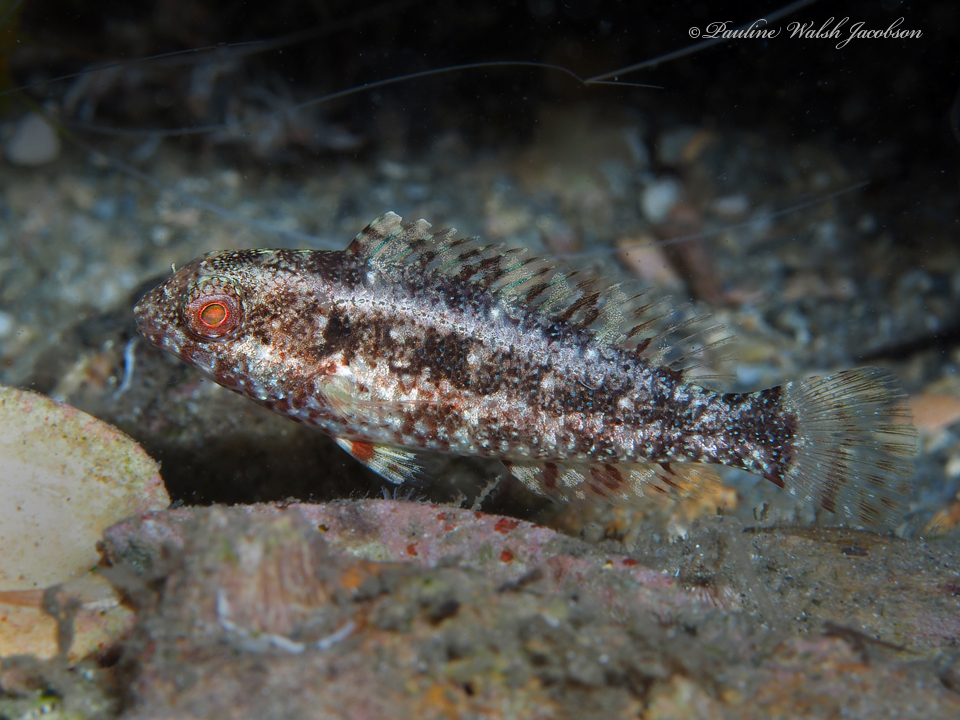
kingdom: Animalia
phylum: Chordata
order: Perciformes
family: Scaridae
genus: Sparisoma
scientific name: Sparisoma aurofrenatum
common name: Redband parrotfish
